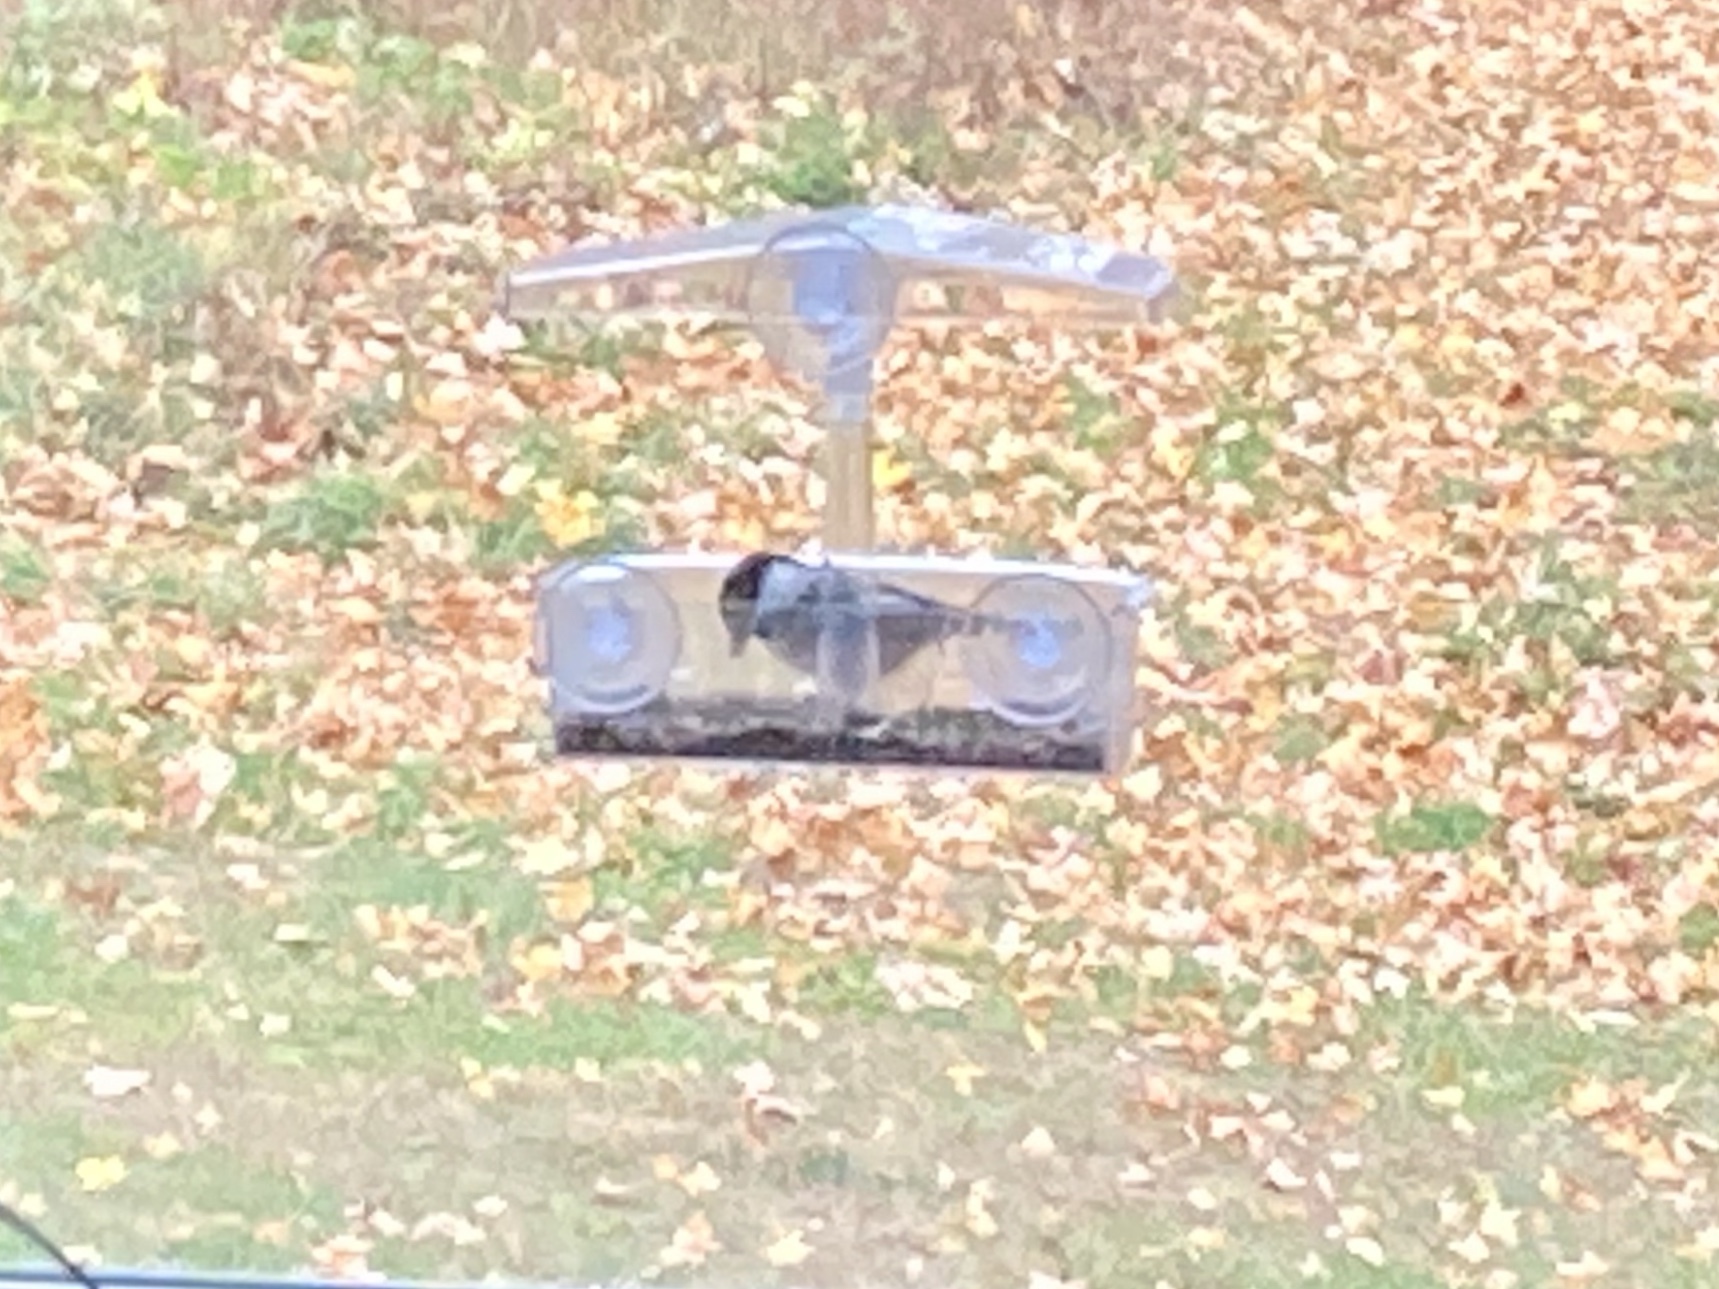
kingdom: Animalia
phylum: Chordata
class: Aves
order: Passeriformes
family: Paridae
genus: Poecile
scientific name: Poecile atricapillus
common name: Black-capped chickadee
